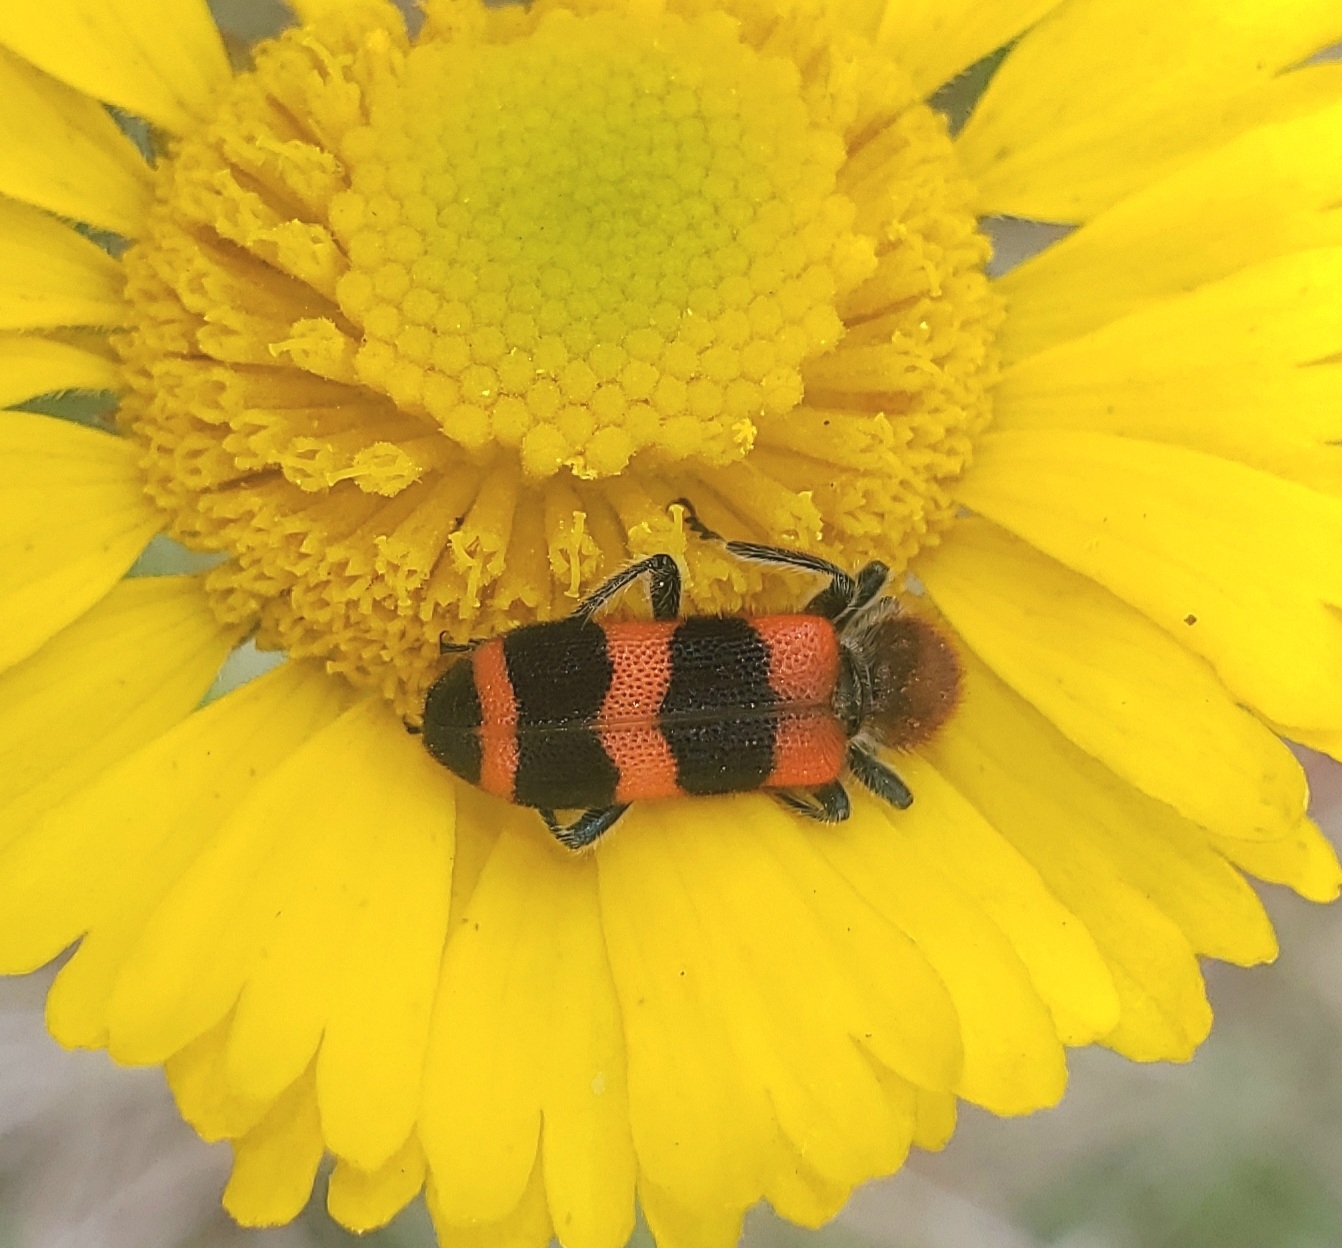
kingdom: Animalia
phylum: Arthropoda
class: Insecta
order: Coleoptera
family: Cleridae
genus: Trichodes
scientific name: Trichodes apivorus
